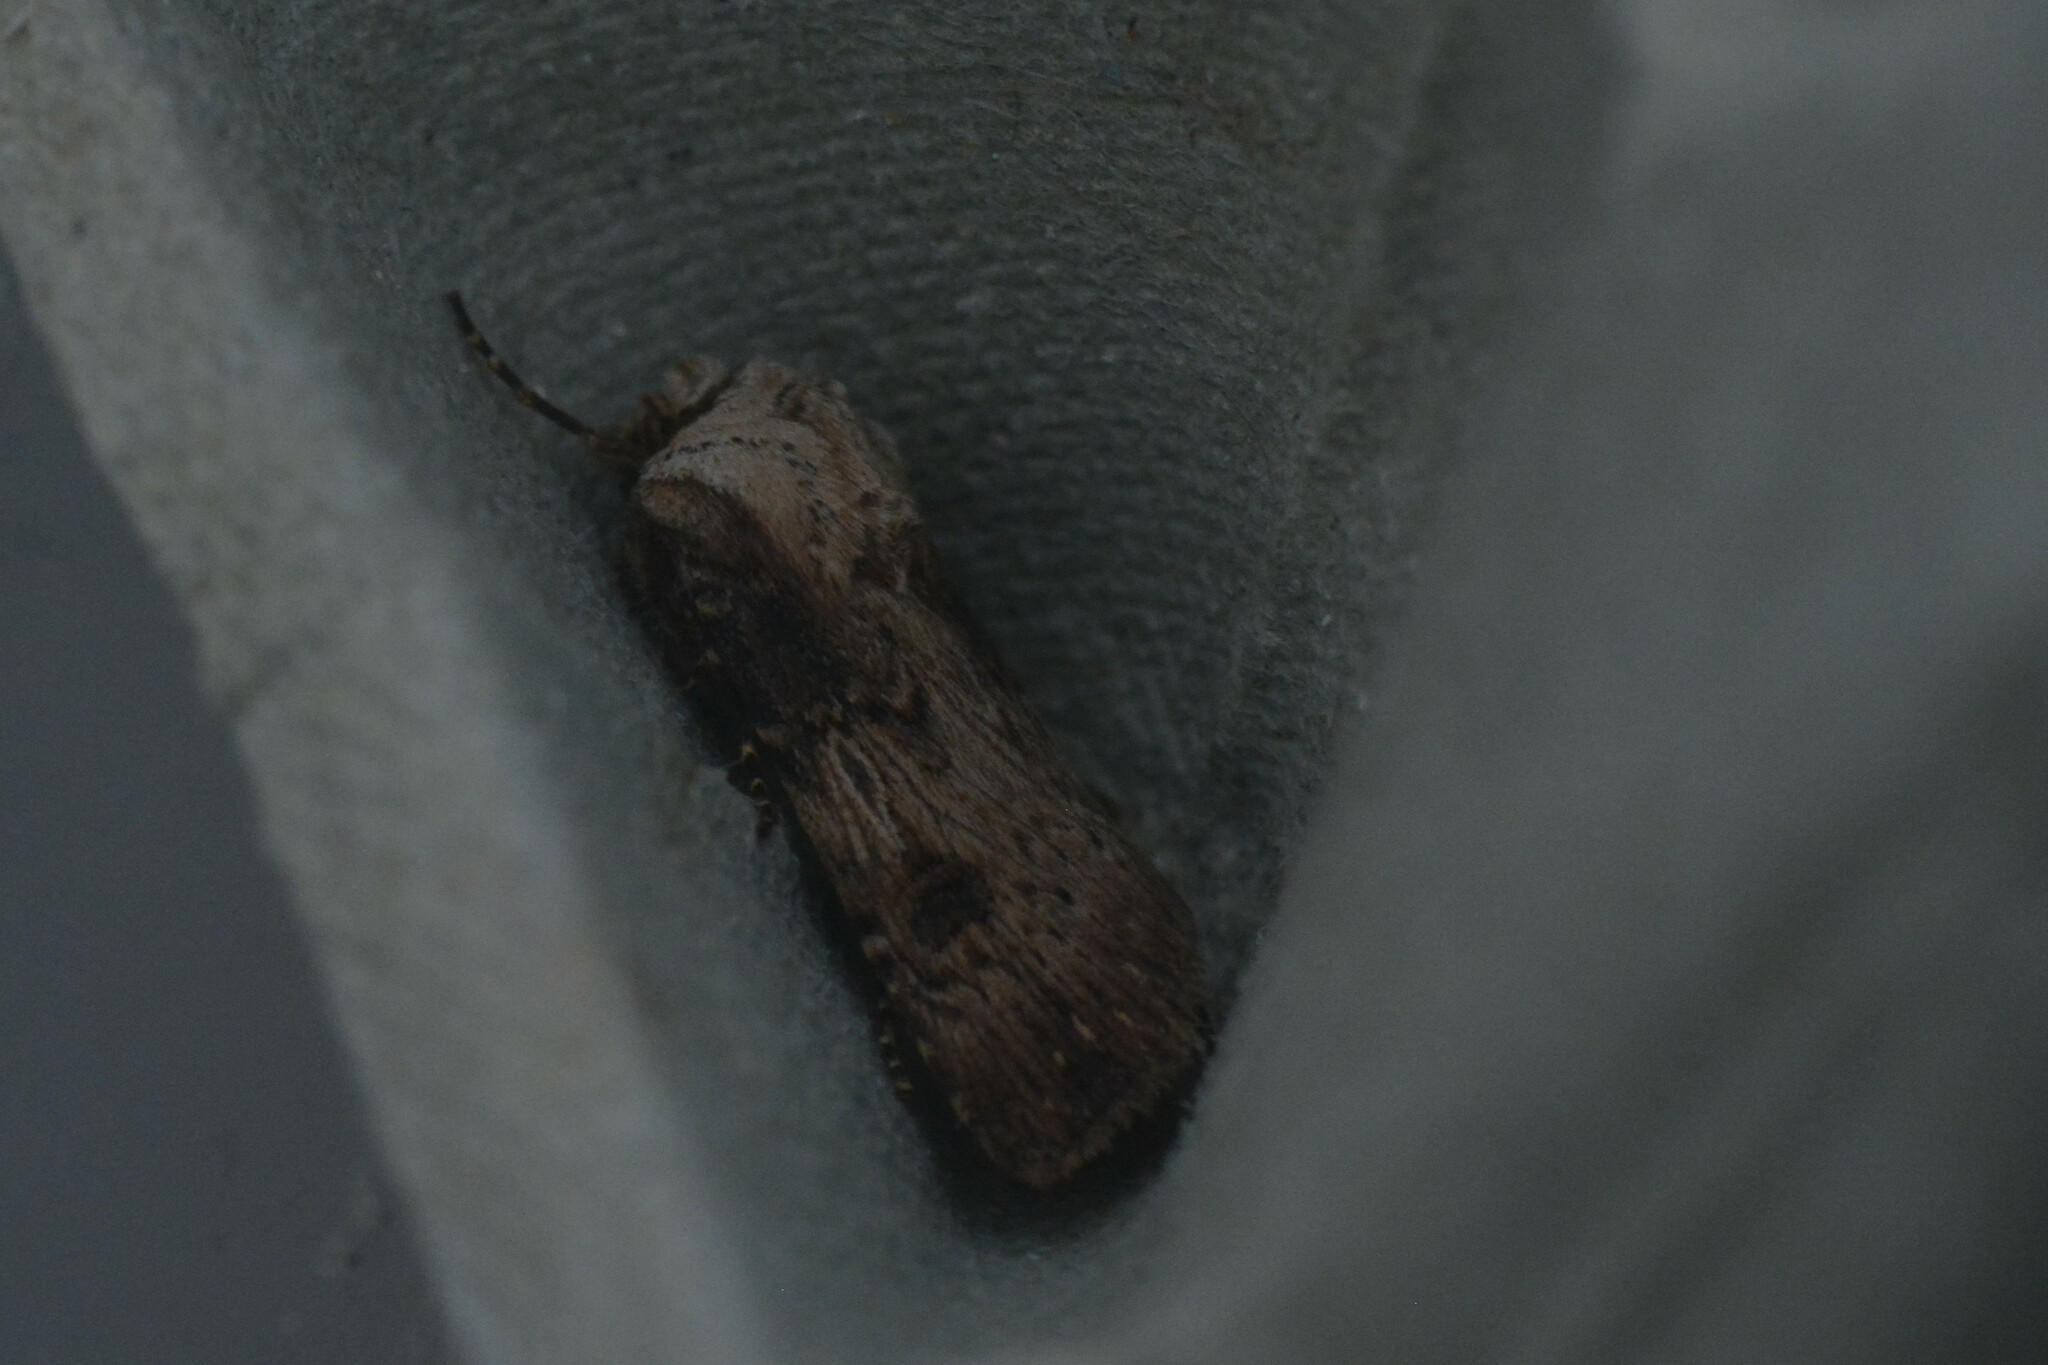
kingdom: Animalia
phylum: Arthropoda
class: Insecta
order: Lepidoptera
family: Noctuidae
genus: Agrotis
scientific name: Agrotis puta
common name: Shuttle-shaped dart
